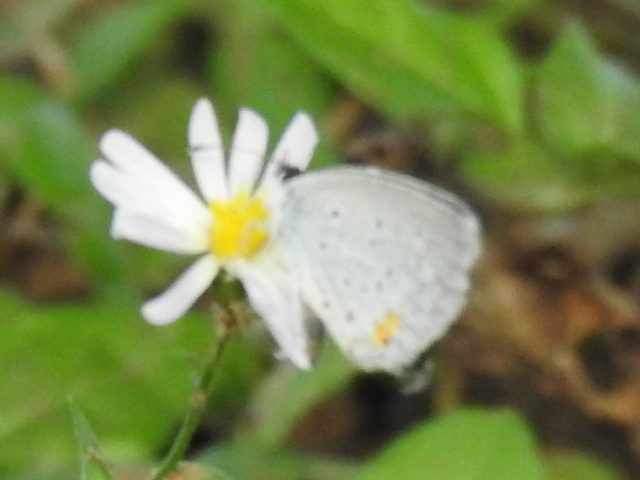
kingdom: Animalia
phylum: Arthropoda
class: Insecta
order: Lepidoptera
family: Lycaenidae
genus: Elkalyce
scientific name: Elkalyce comyntas
